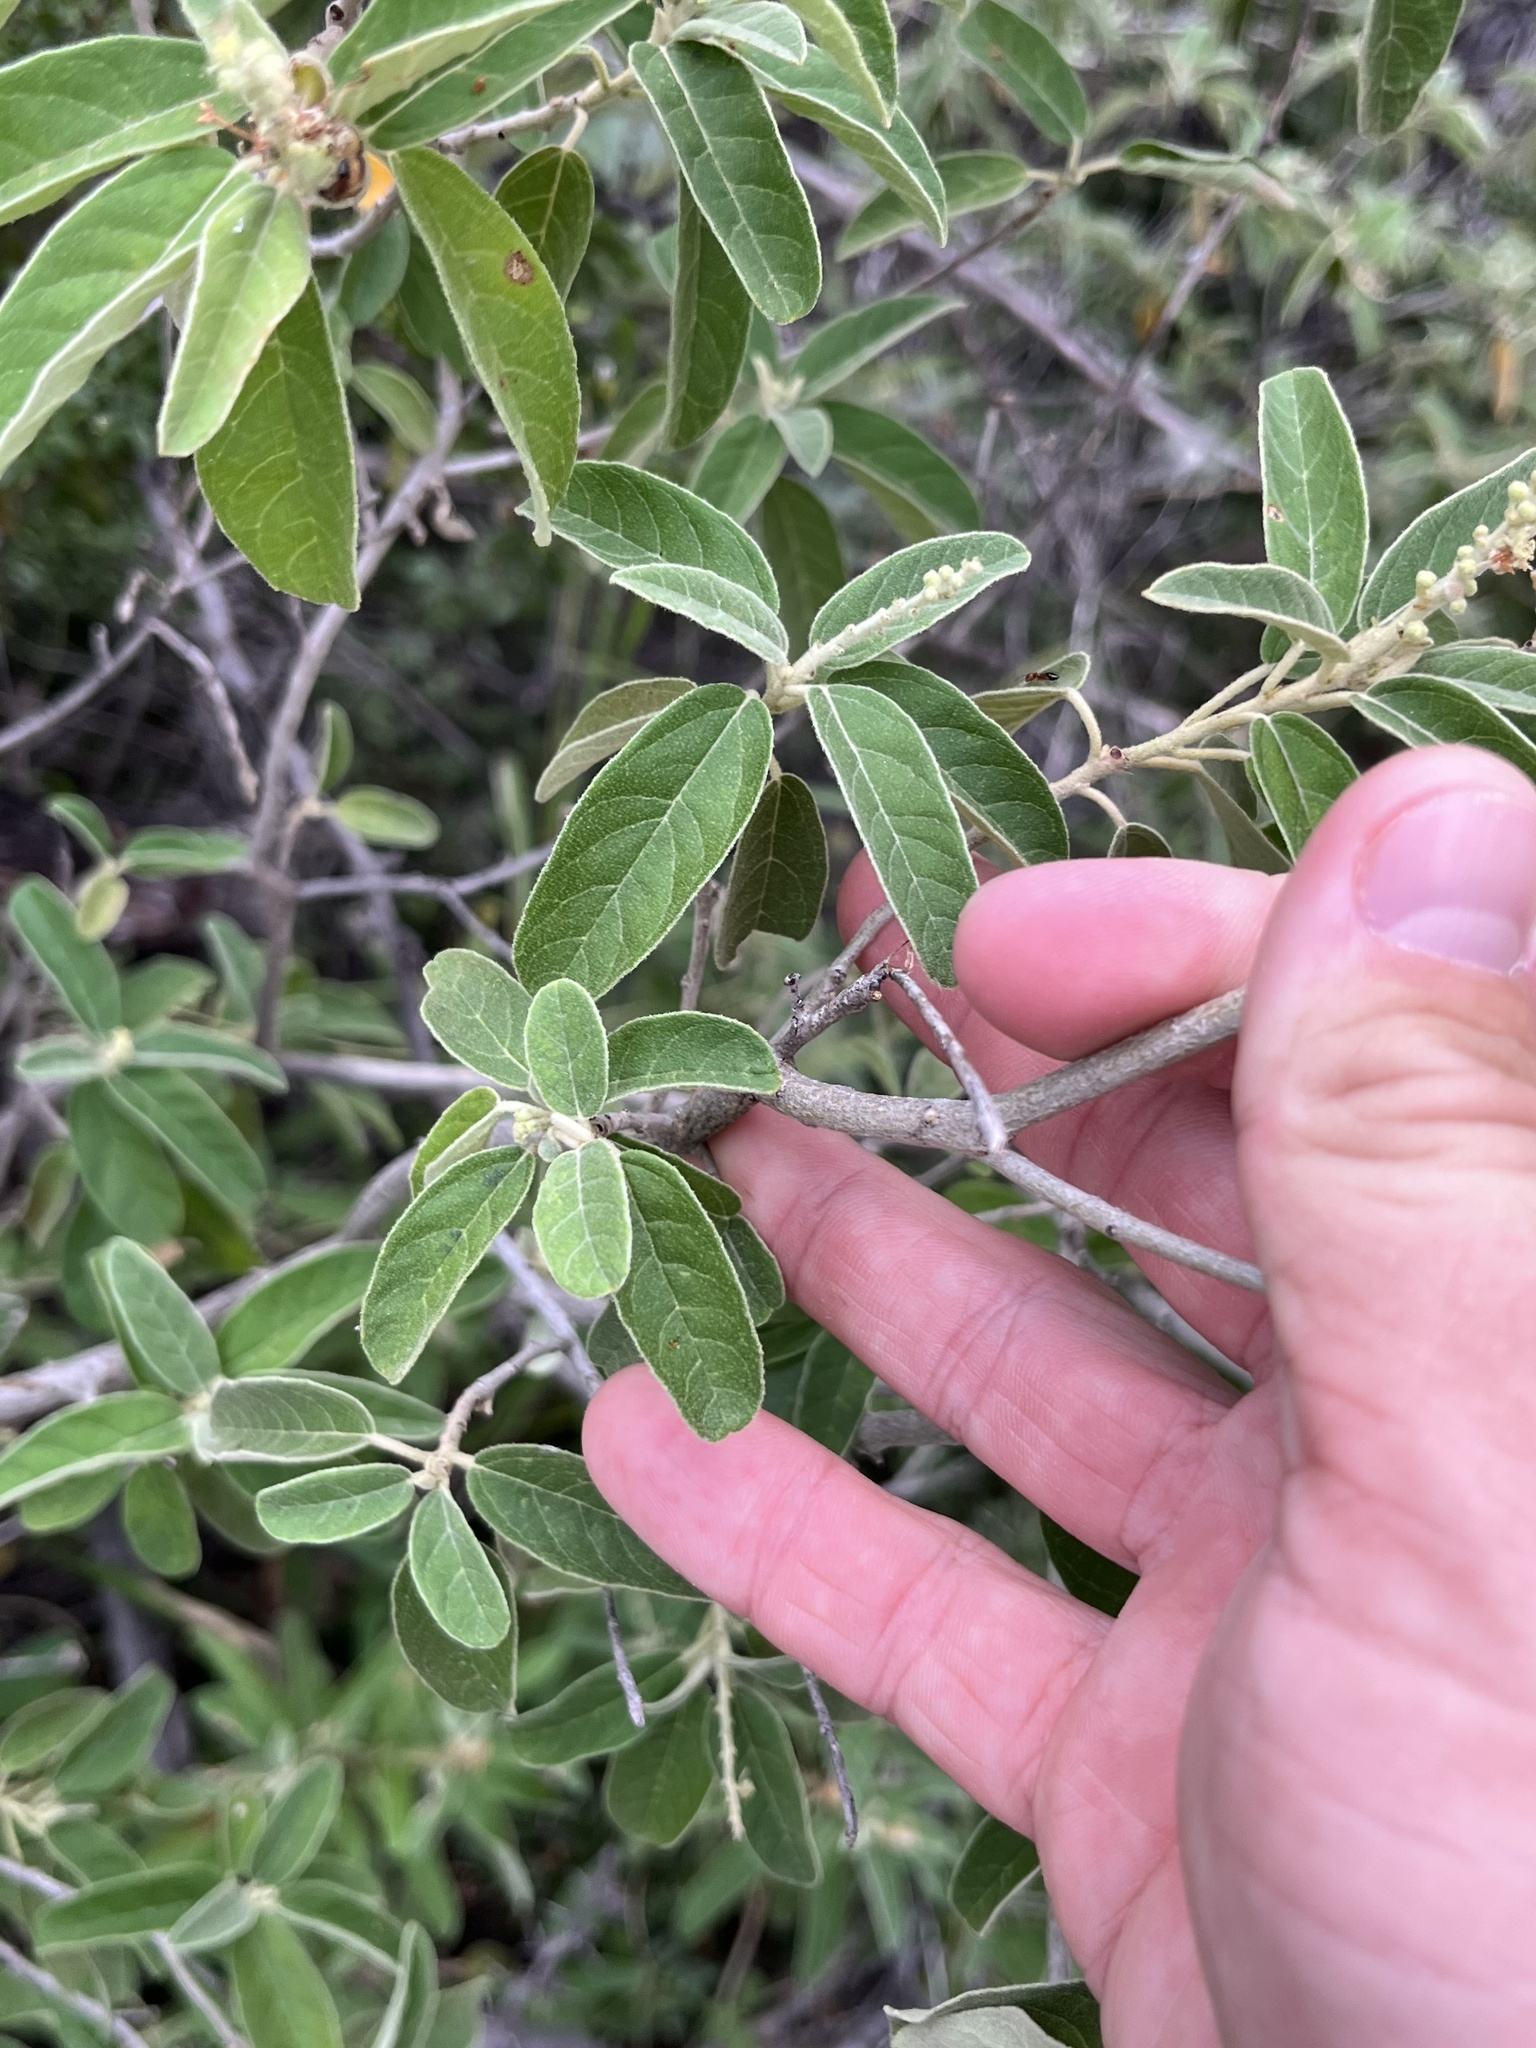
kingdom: Plantae
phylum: Tracheophyta
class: Magnoliopsida
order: Malpighiales
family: Euphorbiaceae
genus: Croton
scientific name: Croton incanus
